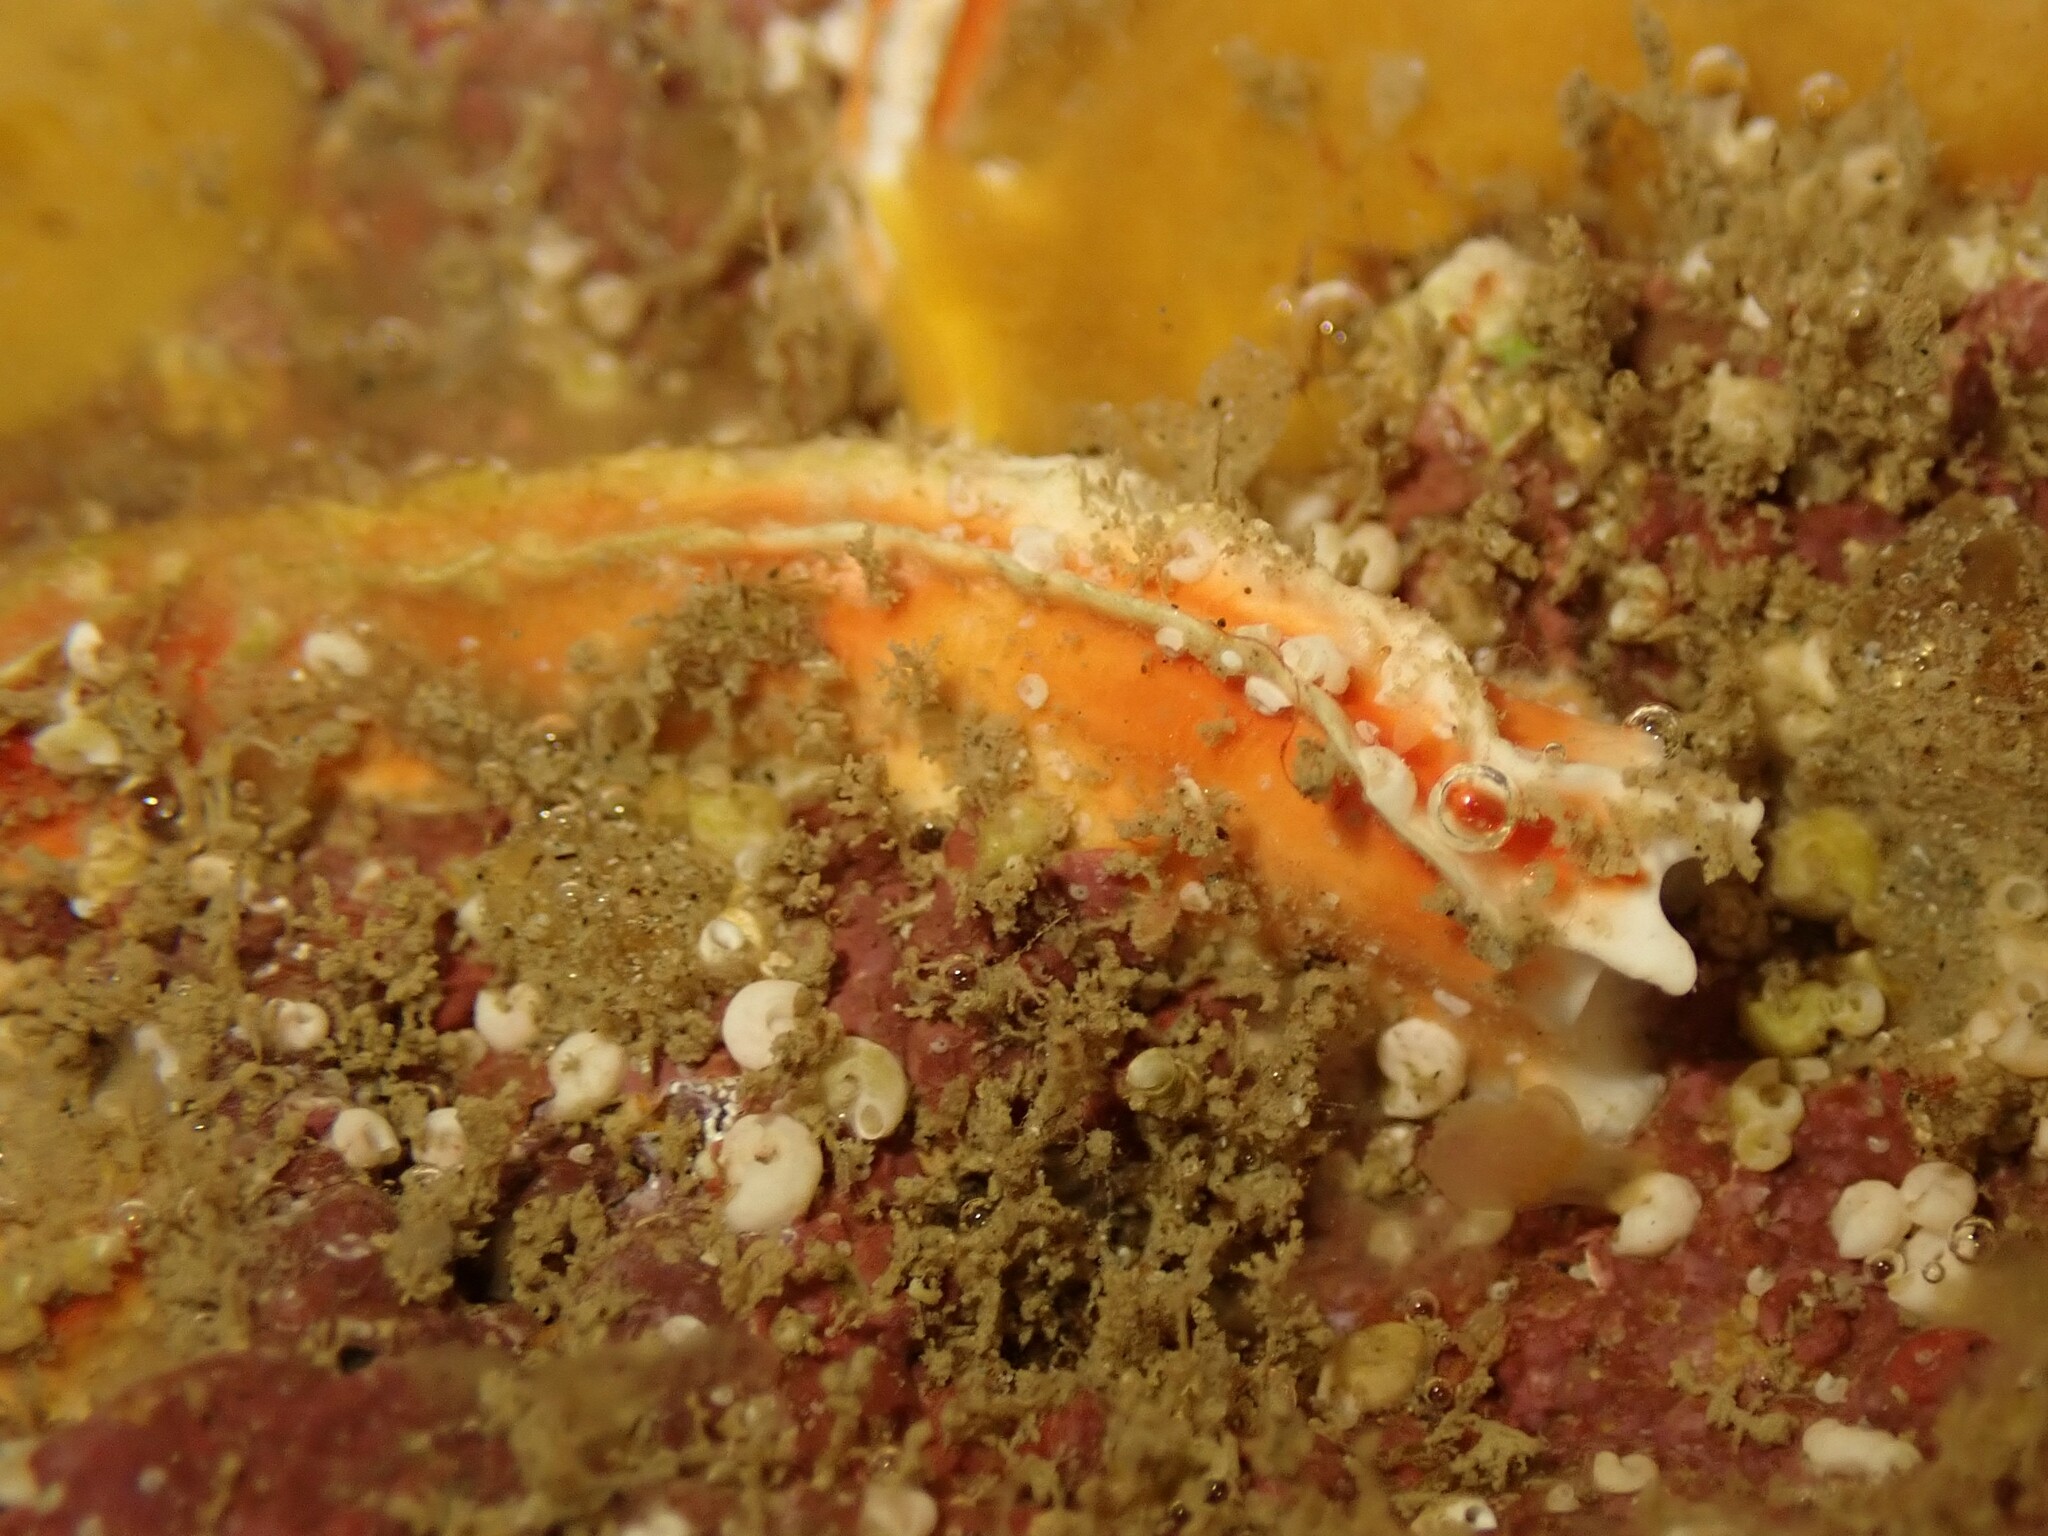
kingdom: Animalia
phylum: Annelida
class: Polychaeta
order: Sabellida
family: Serpulidae
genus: Galeolaria
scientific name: Galeolaria hystrix
